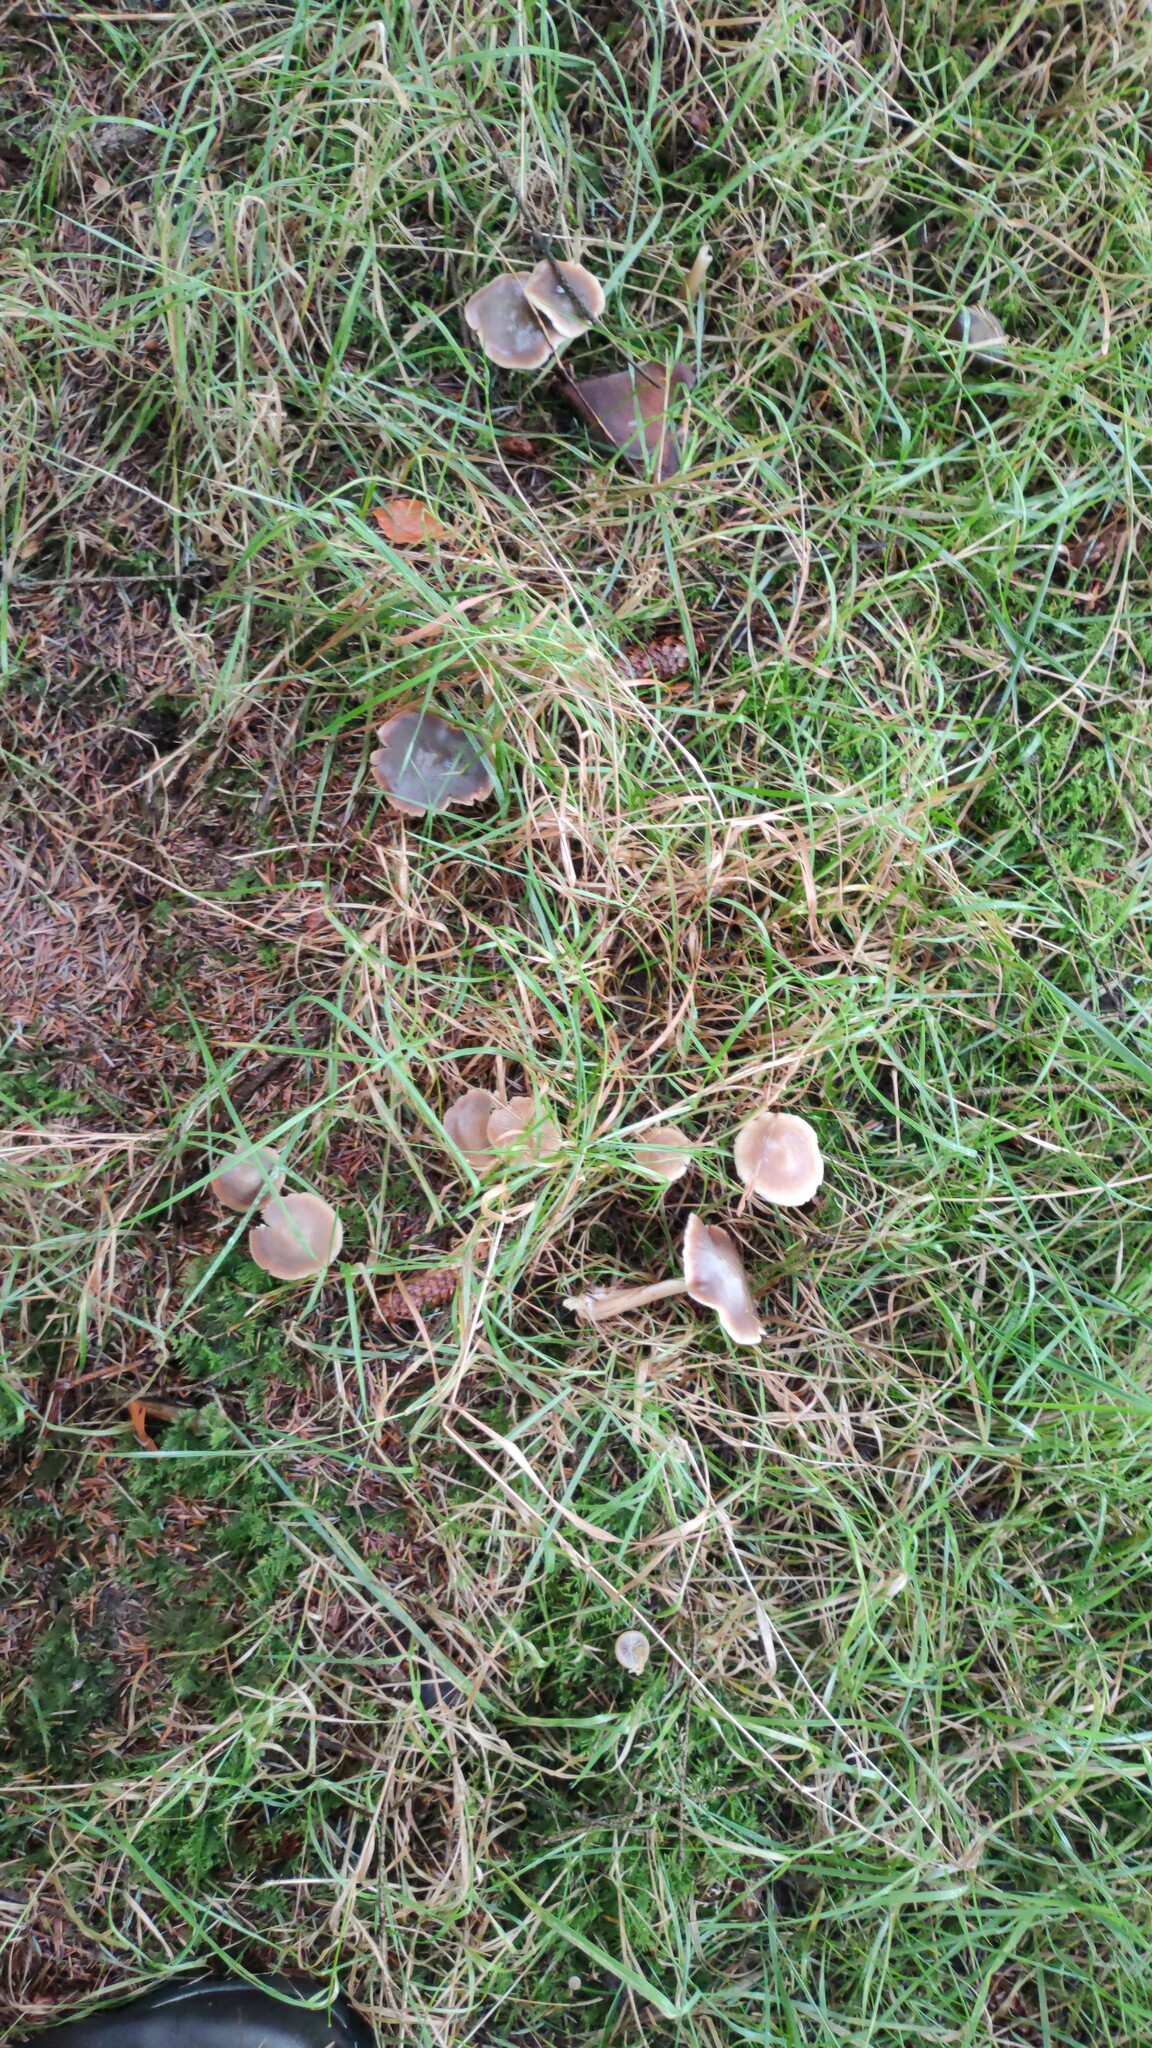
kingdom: Fungi
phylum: Basidiomycota
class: Agaricomycetes
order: Agaricales
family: Omphalotaceae
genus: Rhodocollybia
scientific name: Rhodocollybia asema
